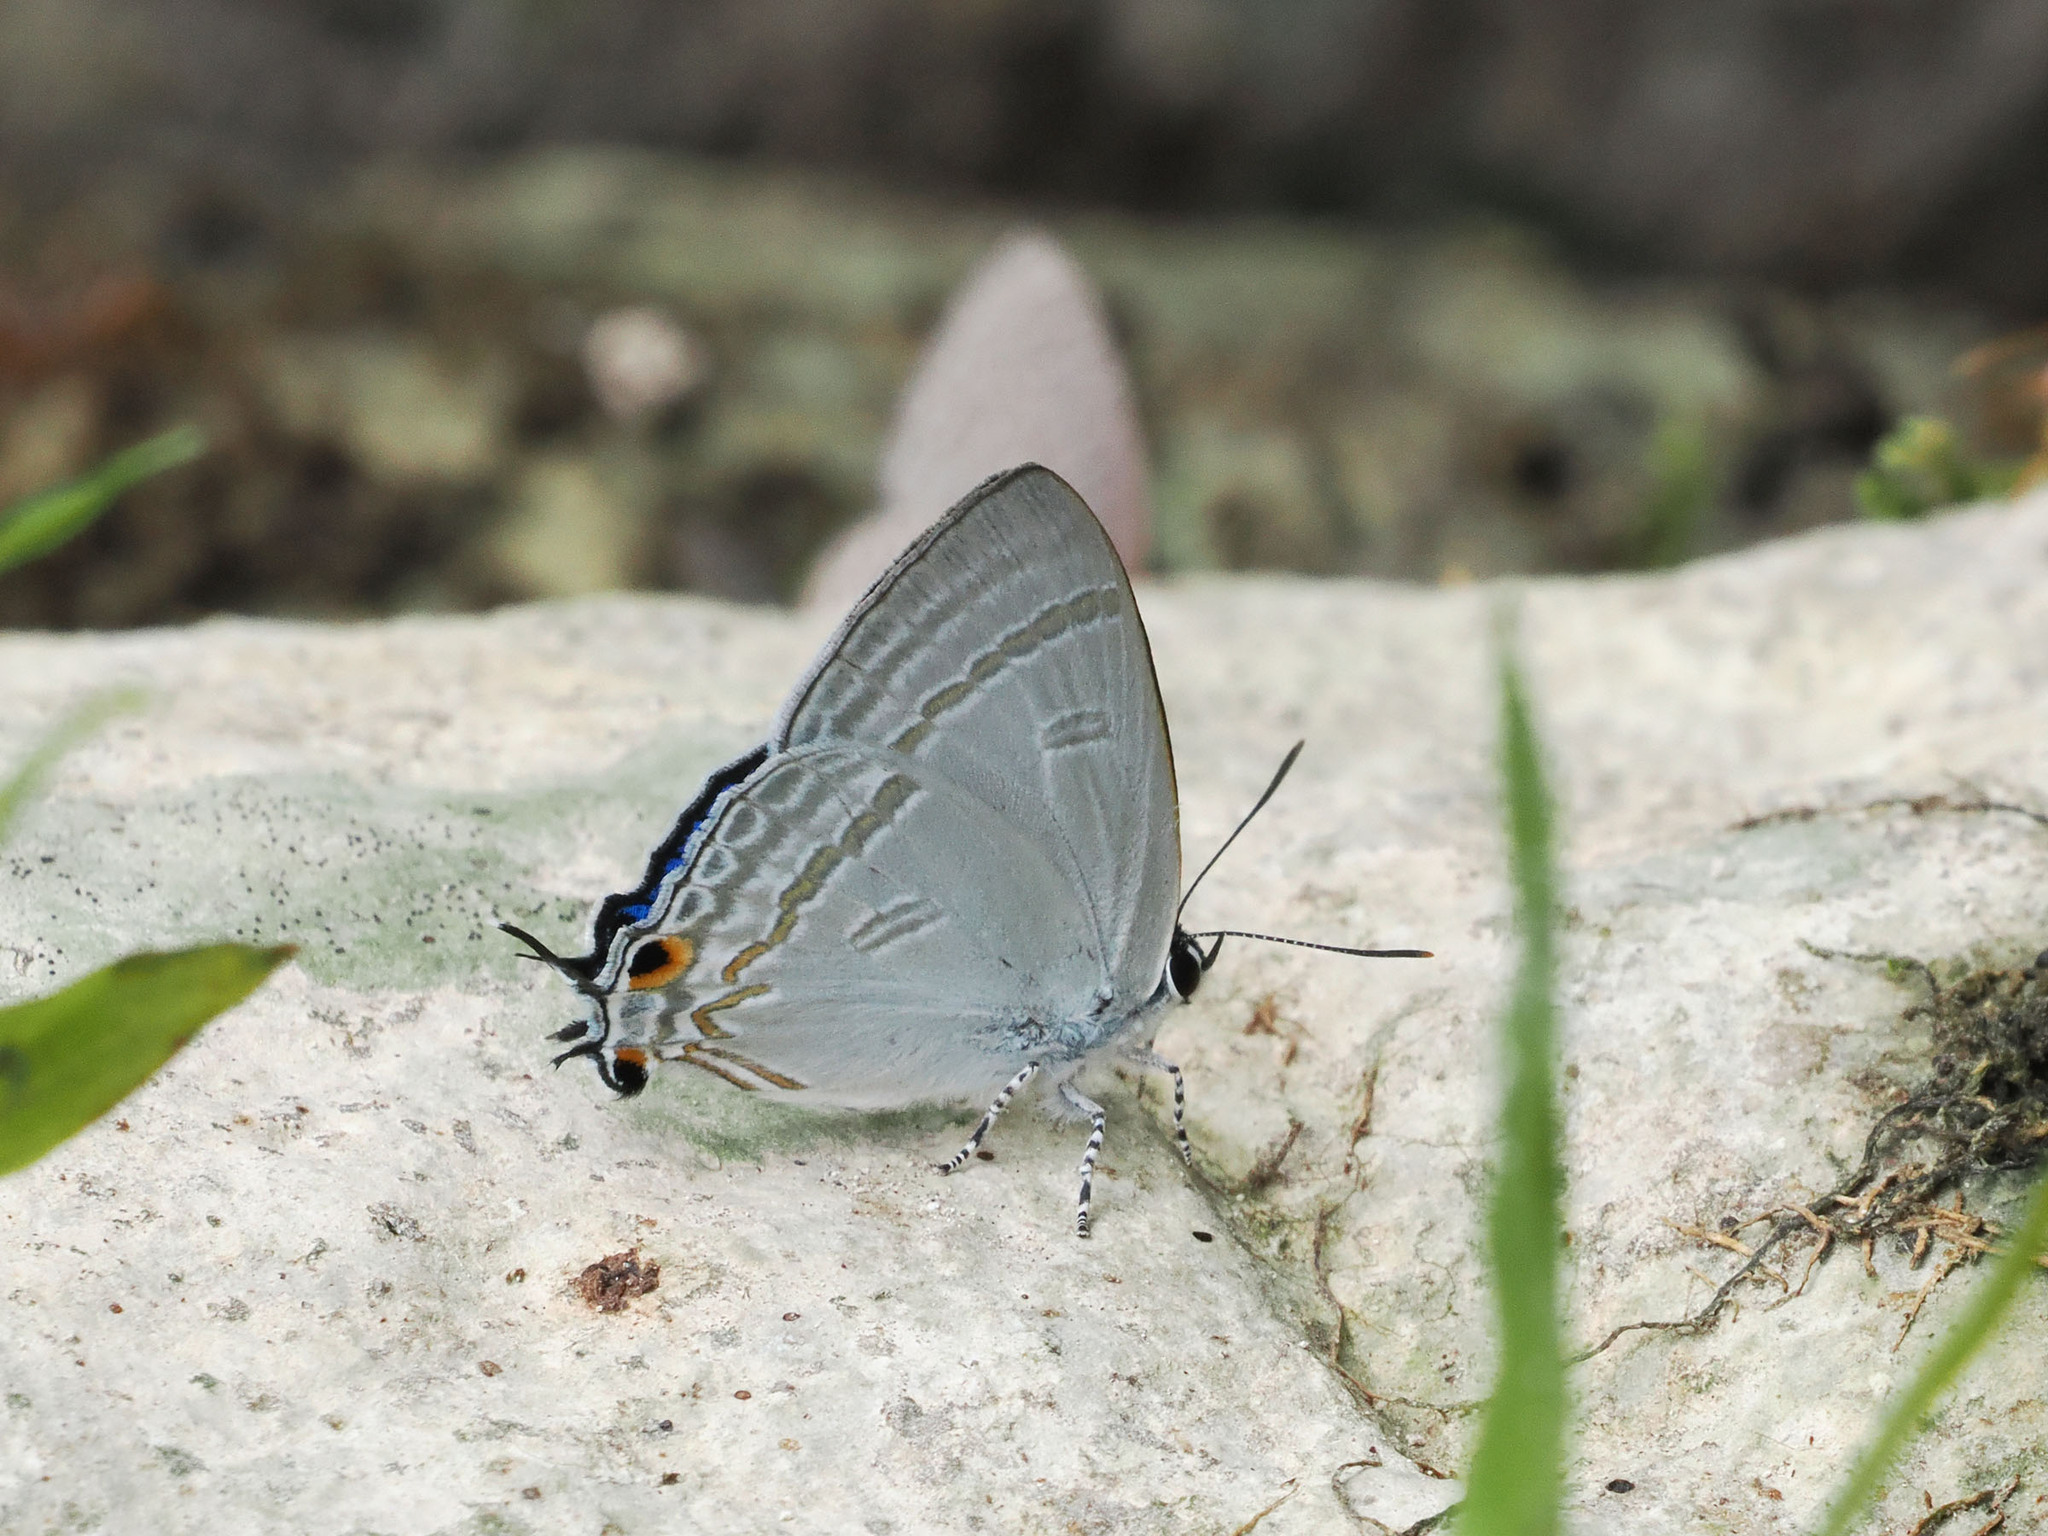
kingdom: Animalia
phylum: Arthropoda
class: Insecta
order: Lepidoptera
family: Lycaenidae
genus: Hypolycaena
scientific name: Hypolycaena phorbas
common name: Black-spotted flash
